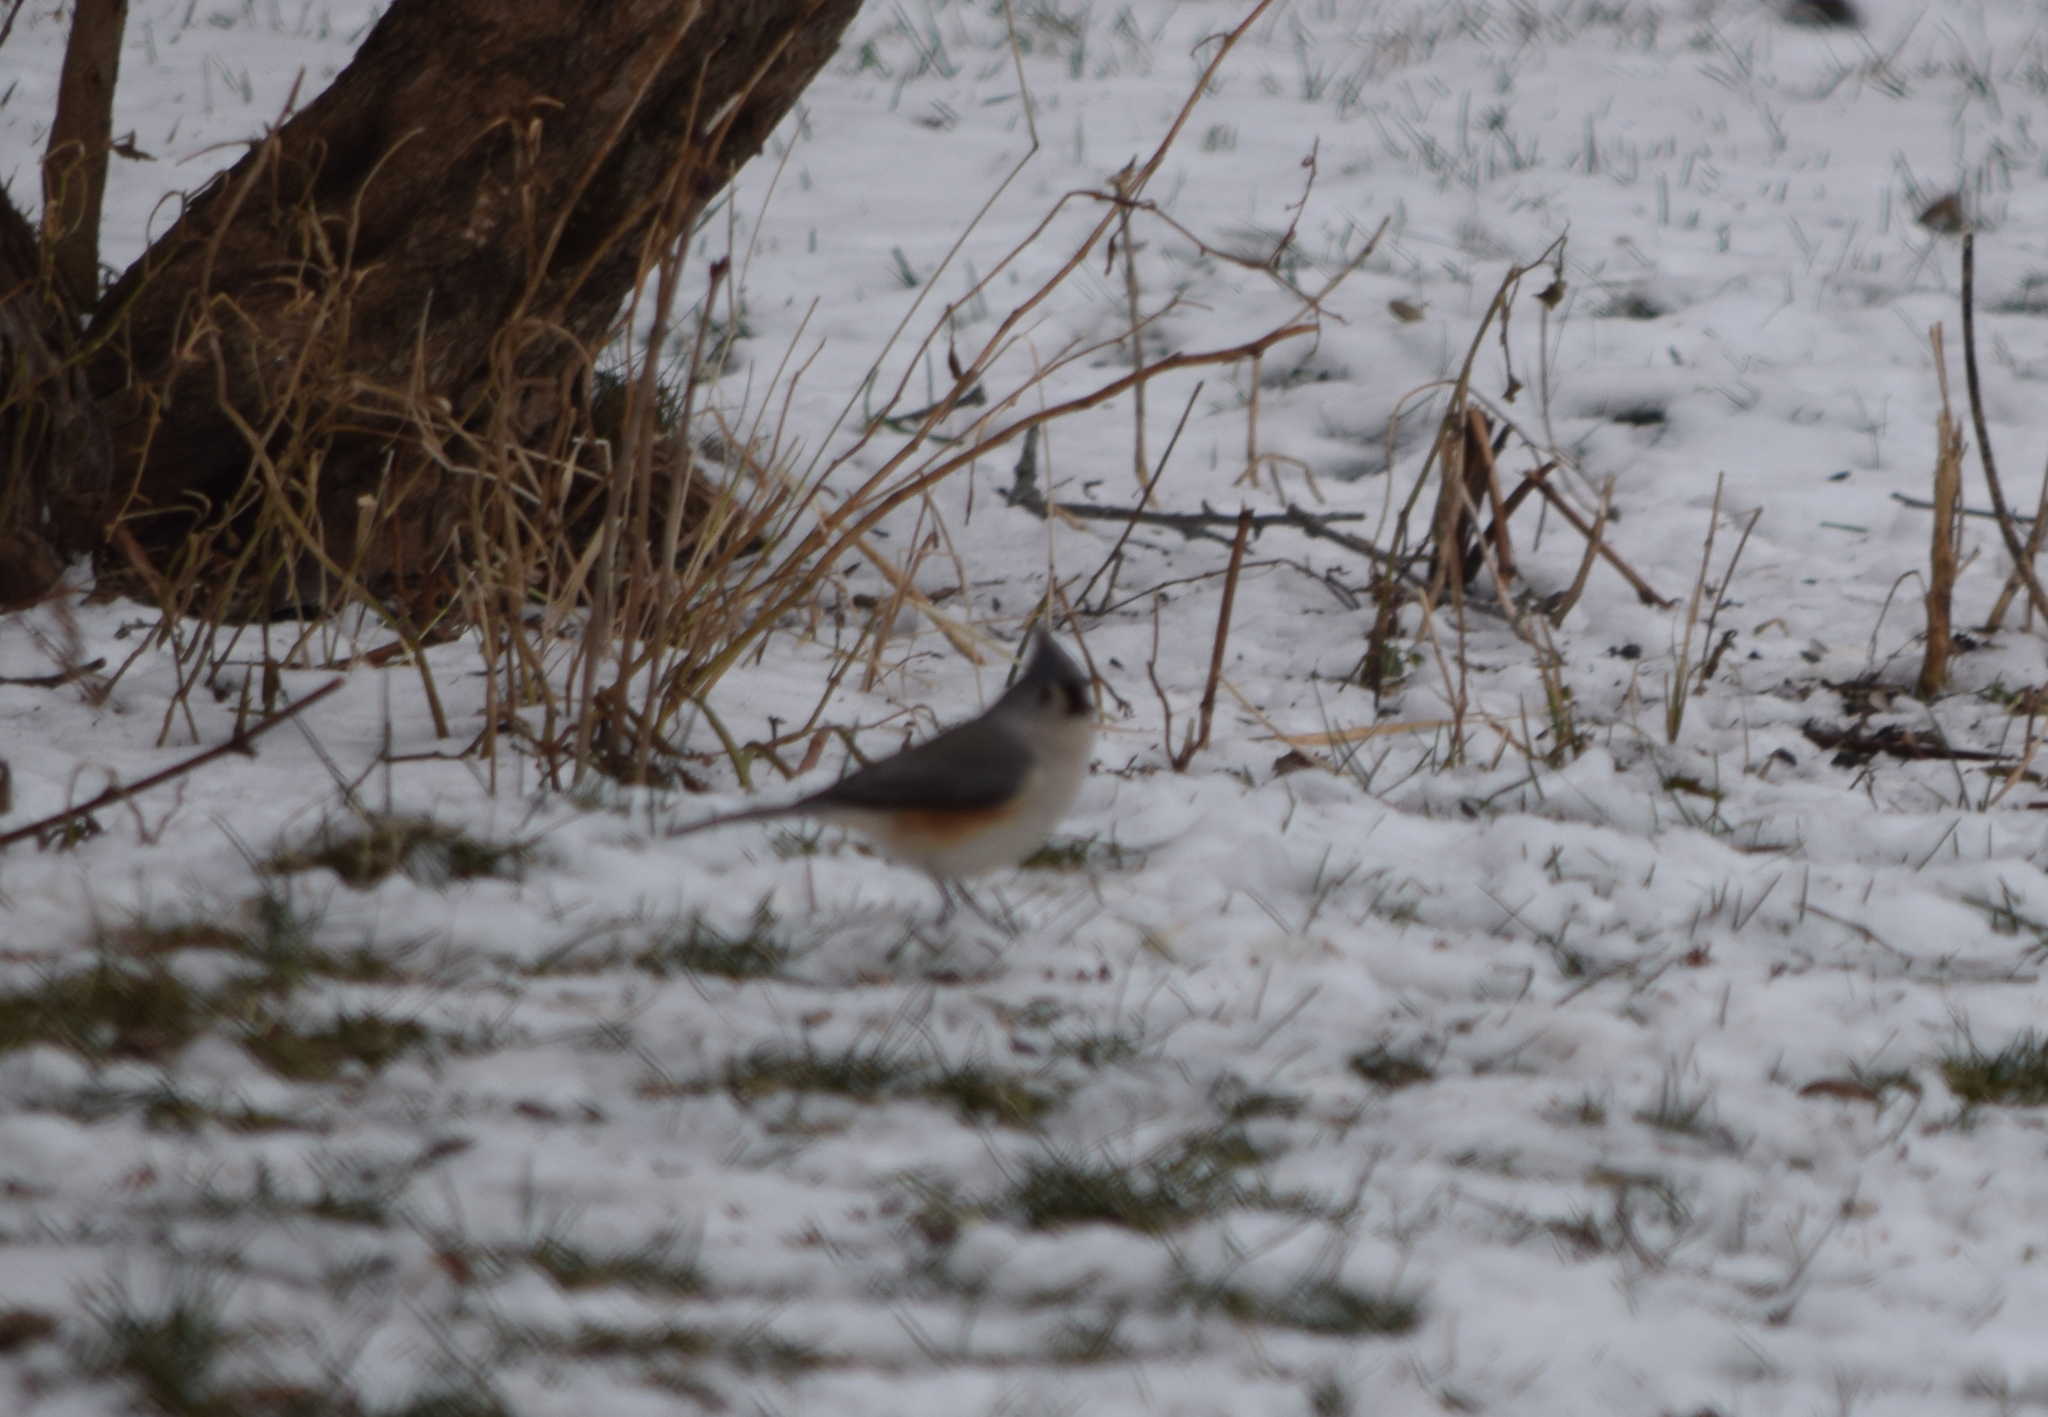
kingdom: Animalia
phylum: Chordata
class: Aves
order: Passeriformes
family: Paridae
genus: Baeolophus
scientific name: Baeolophus bicolor
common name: Tufted titmouse
